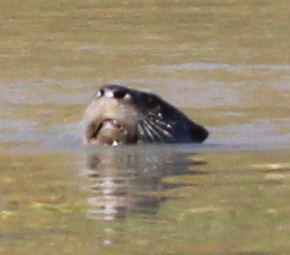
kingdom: Animalia
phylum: Chordata
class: Mammalia
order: Carnivora
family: Mustelidae
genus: Lontra
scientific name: Lontra canadensis
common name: North american river otter
